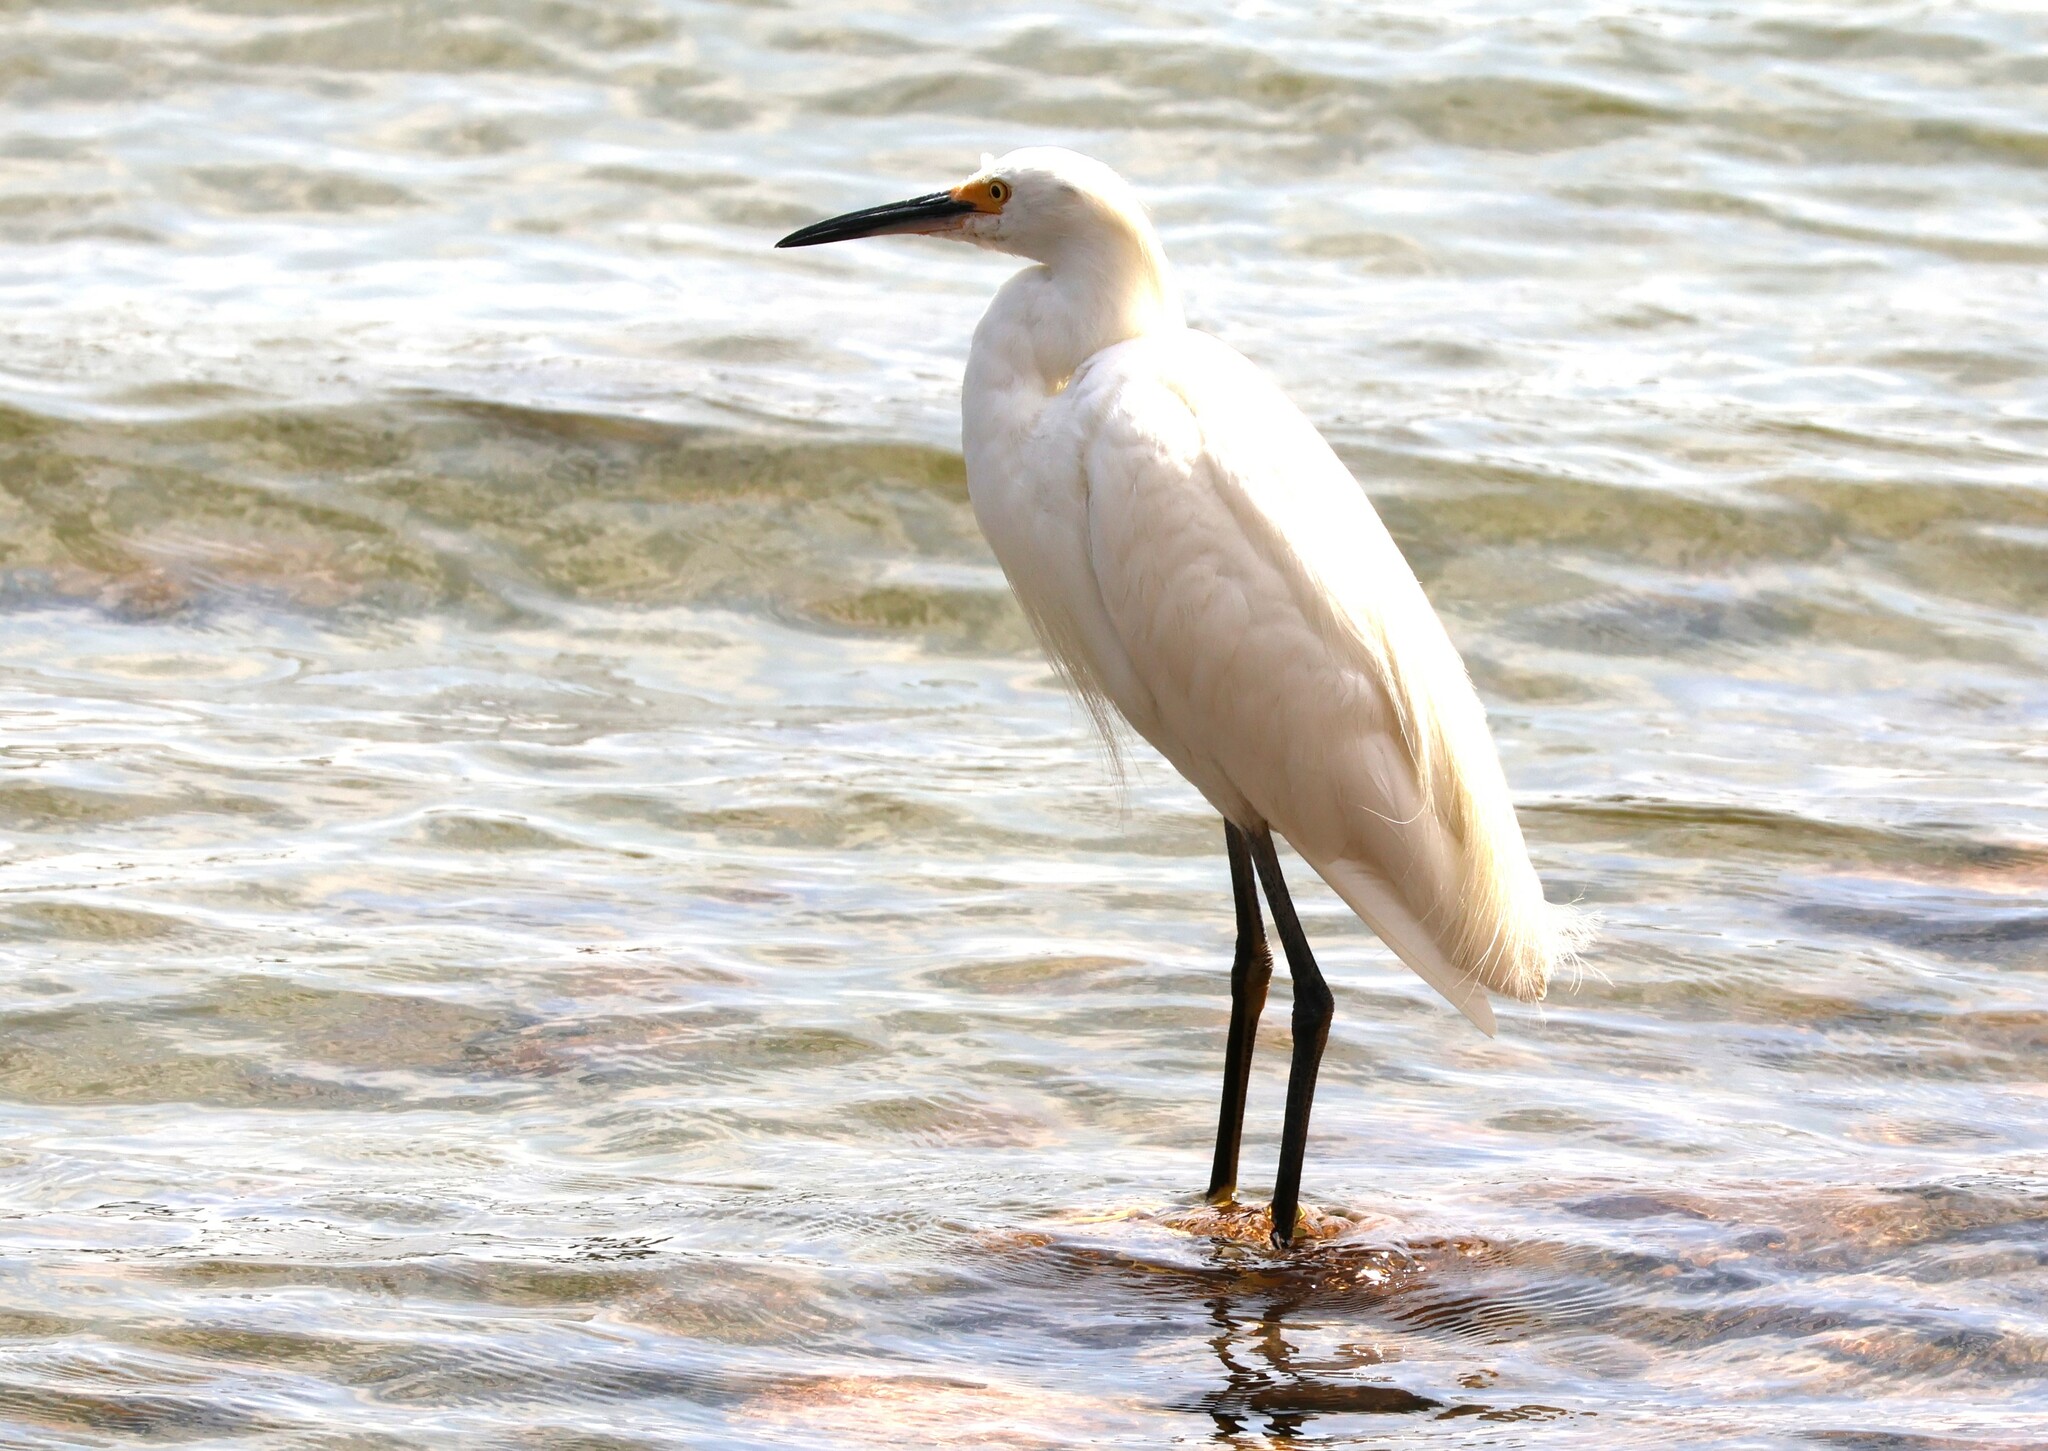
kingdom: Animalia
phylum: Chordata
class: Aves
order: Pelecaniformes
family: Ardeidae
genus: Egretta
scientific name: Egretta thula
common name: Snowy egret
